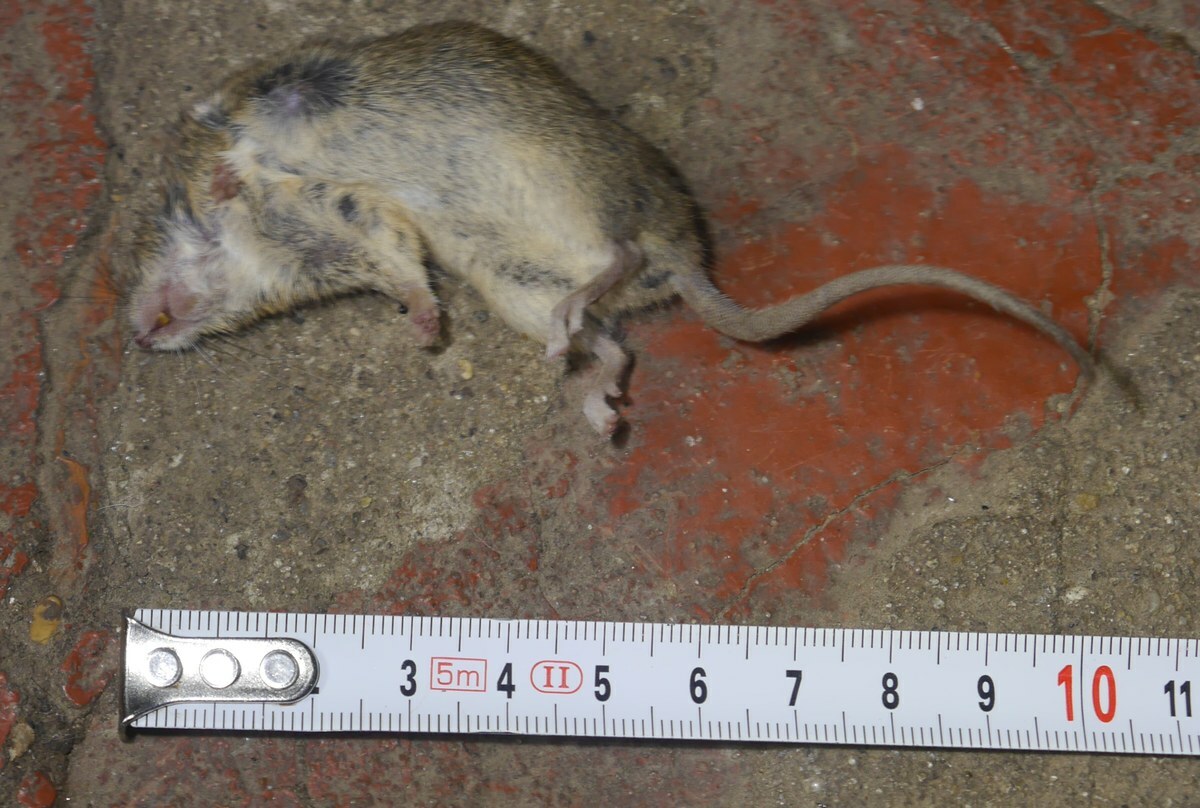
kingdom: Animalia
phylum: Chordata
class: Mammalia
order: Rodentia
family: Muridae
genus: Mus
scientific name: Mus musculus
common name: House mouse
